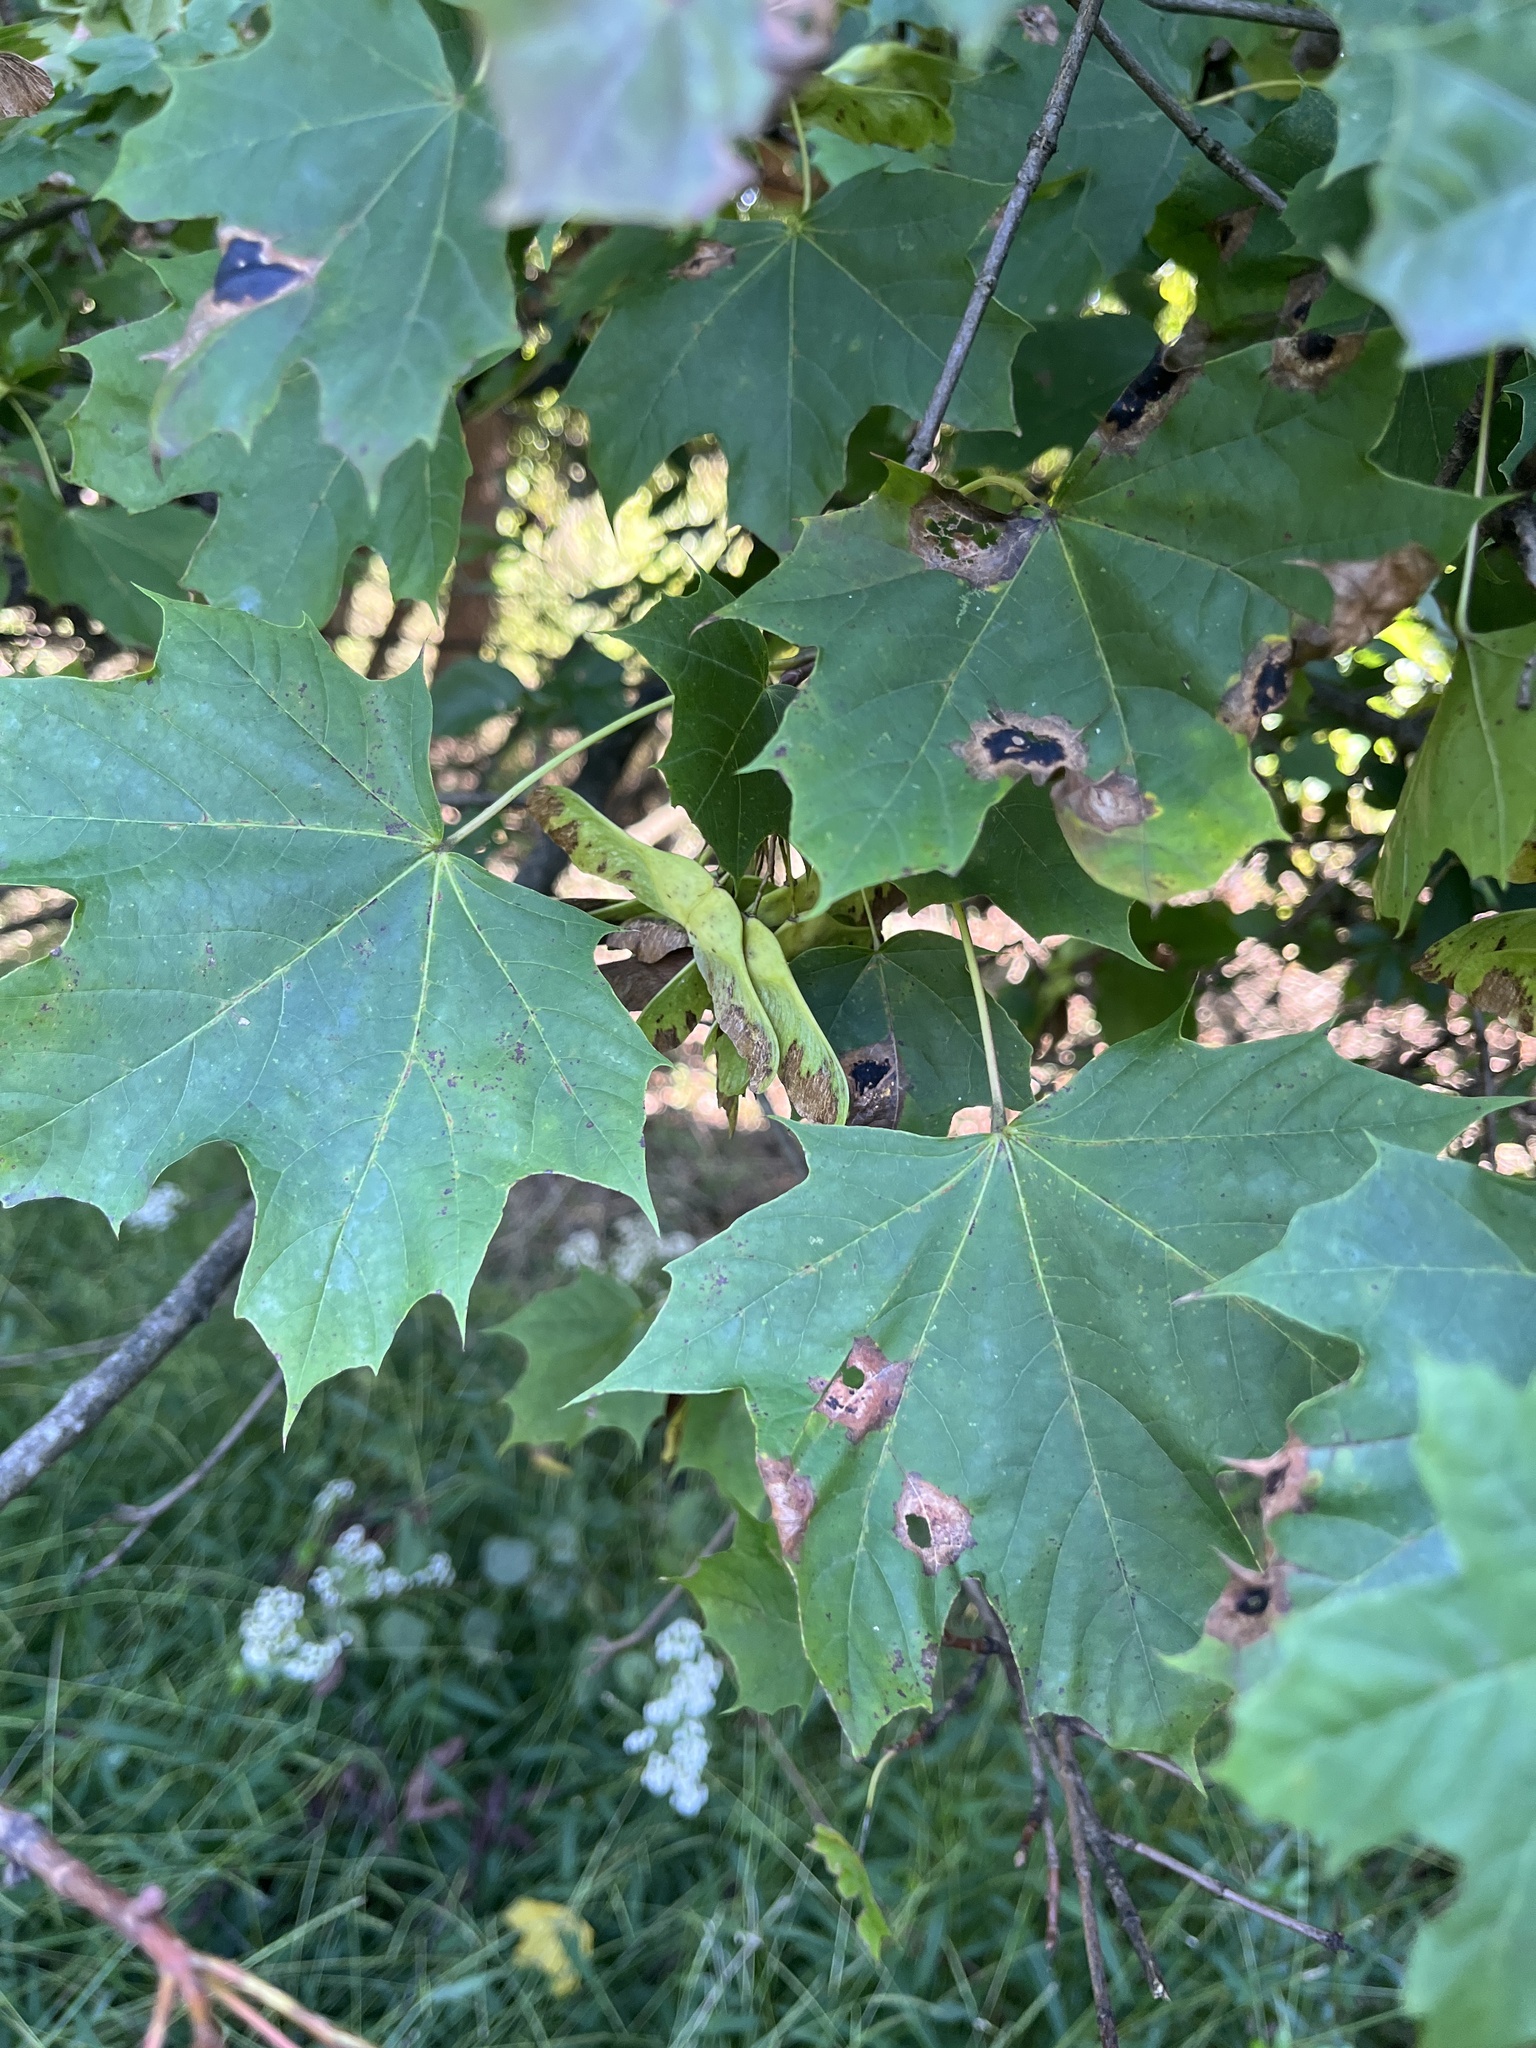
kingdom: Plantae
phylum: Tracheophyta
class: Magnoliopsida
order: Sapindales
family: Sapindaceae
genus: Acer
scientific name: Acer platanoides
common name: Norway maple
